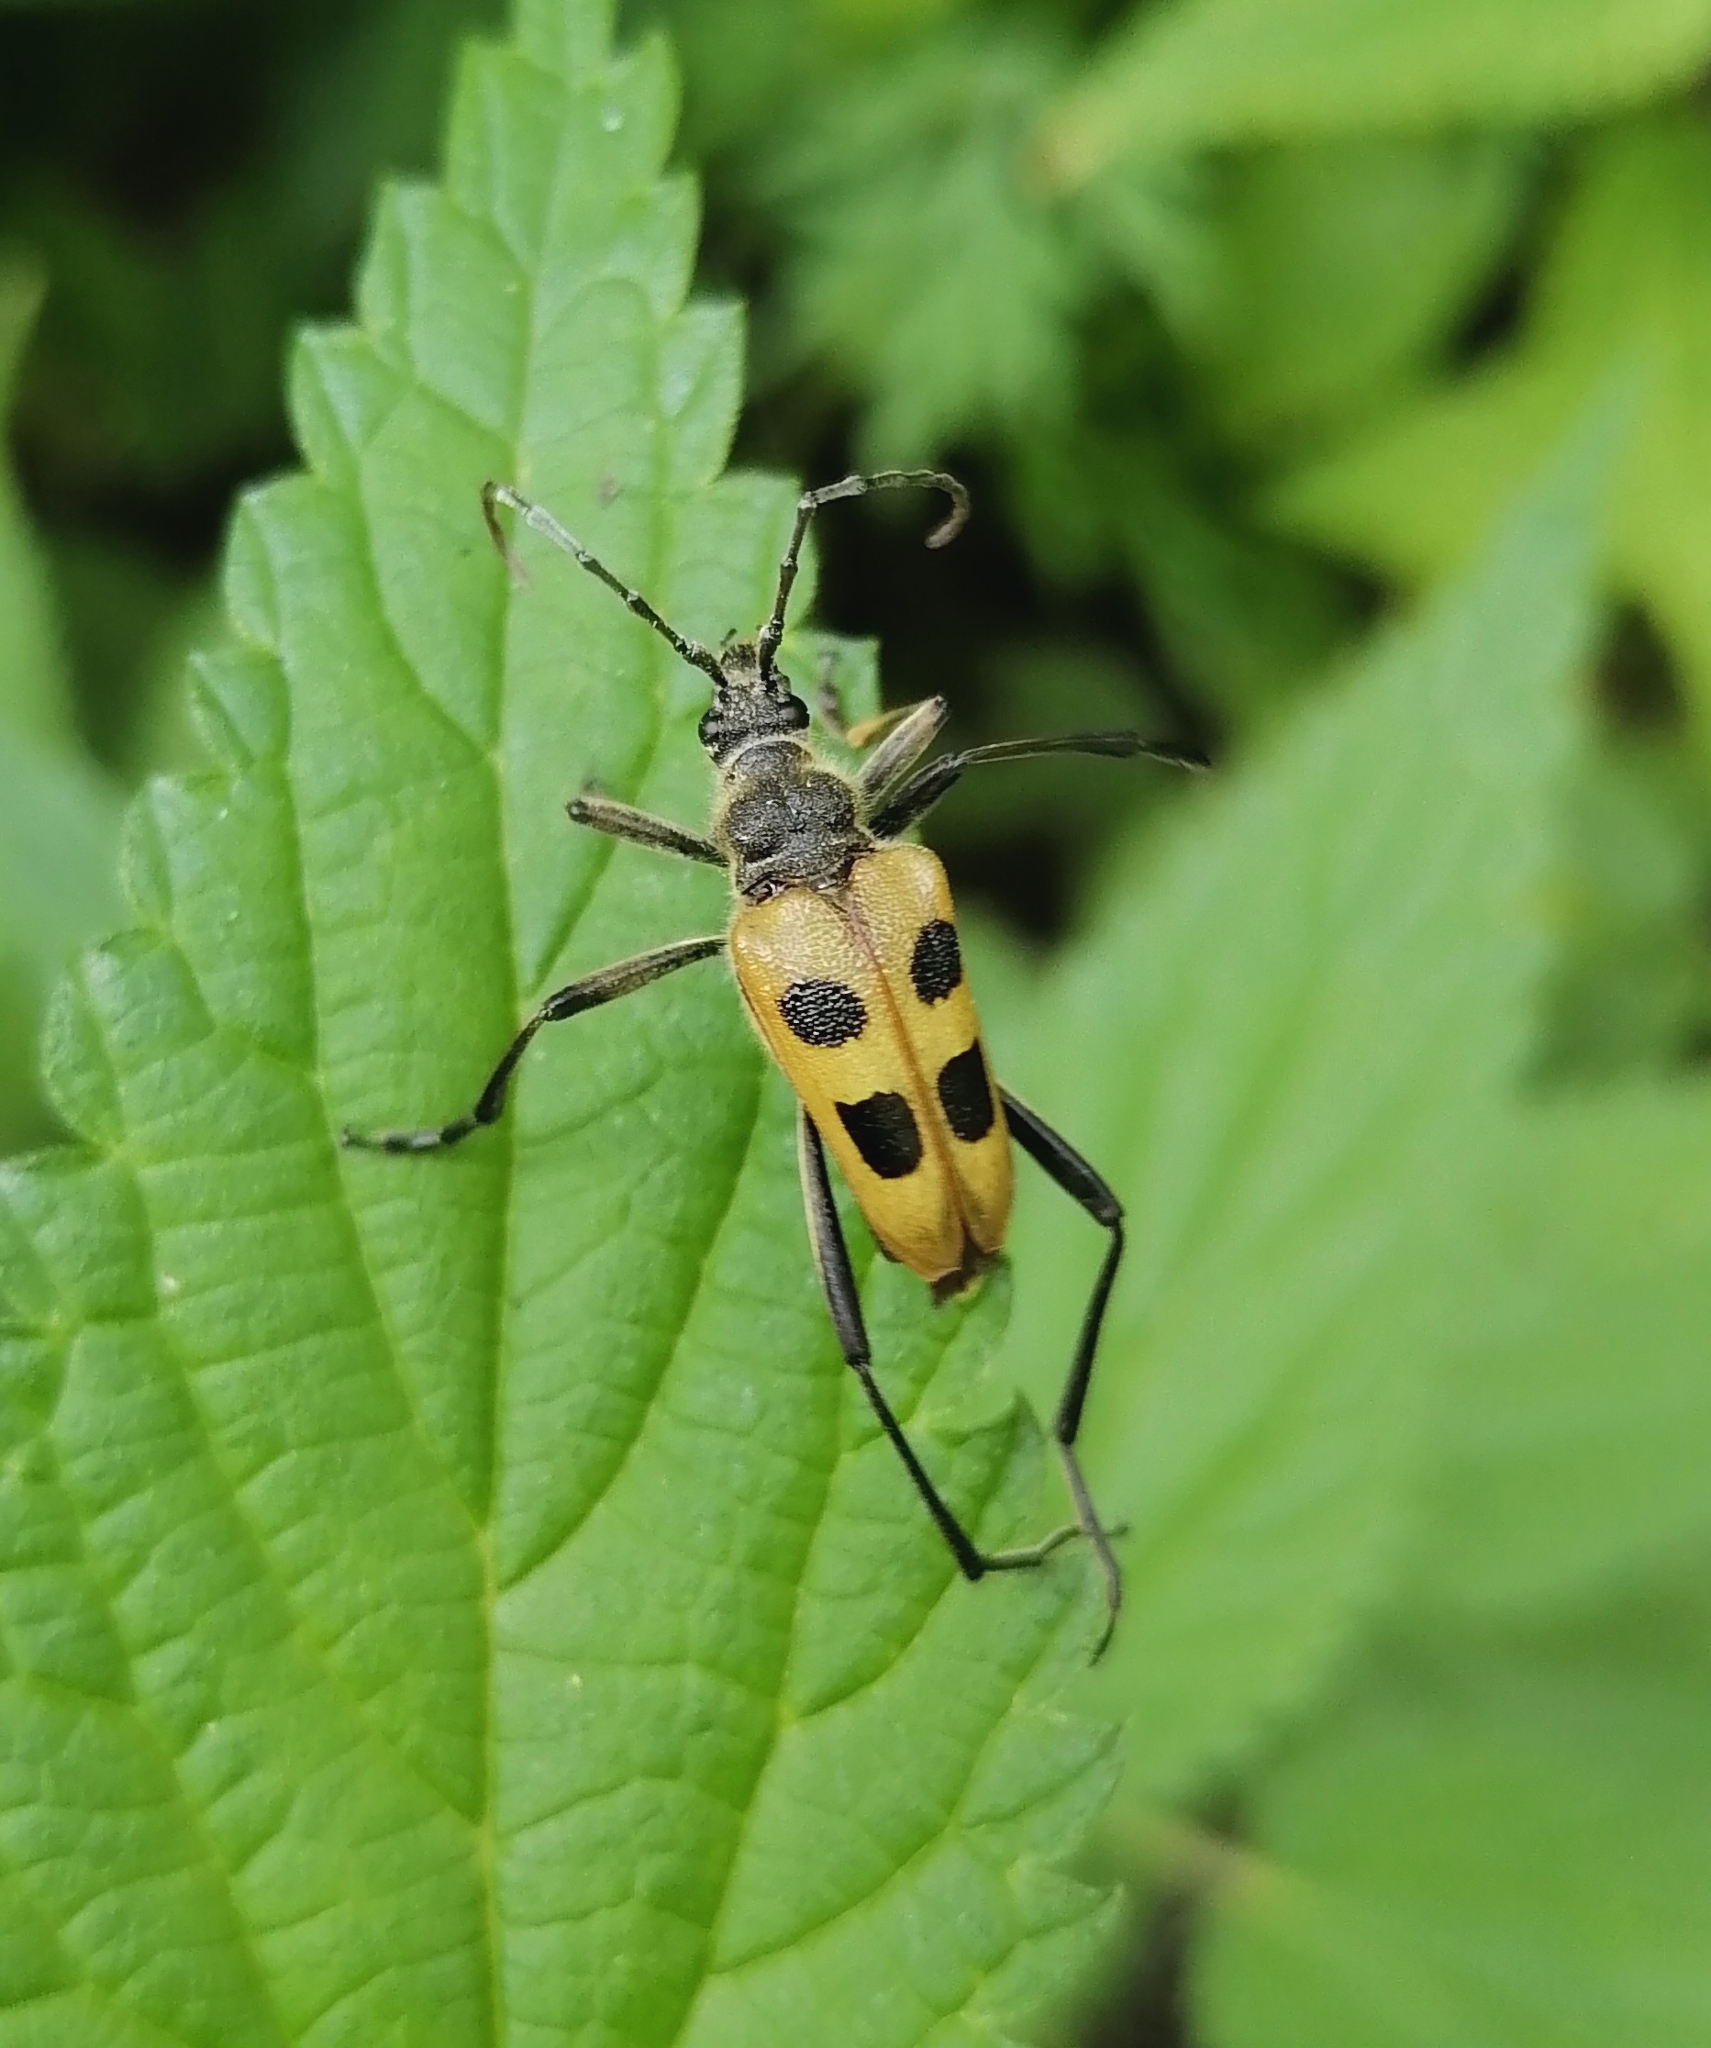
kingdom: Animalia
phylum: Arthropoda
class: Insecta
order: Coleoptera
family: Cerambycidae
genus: Pachyta
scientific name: Pachyta quadrimaculata
